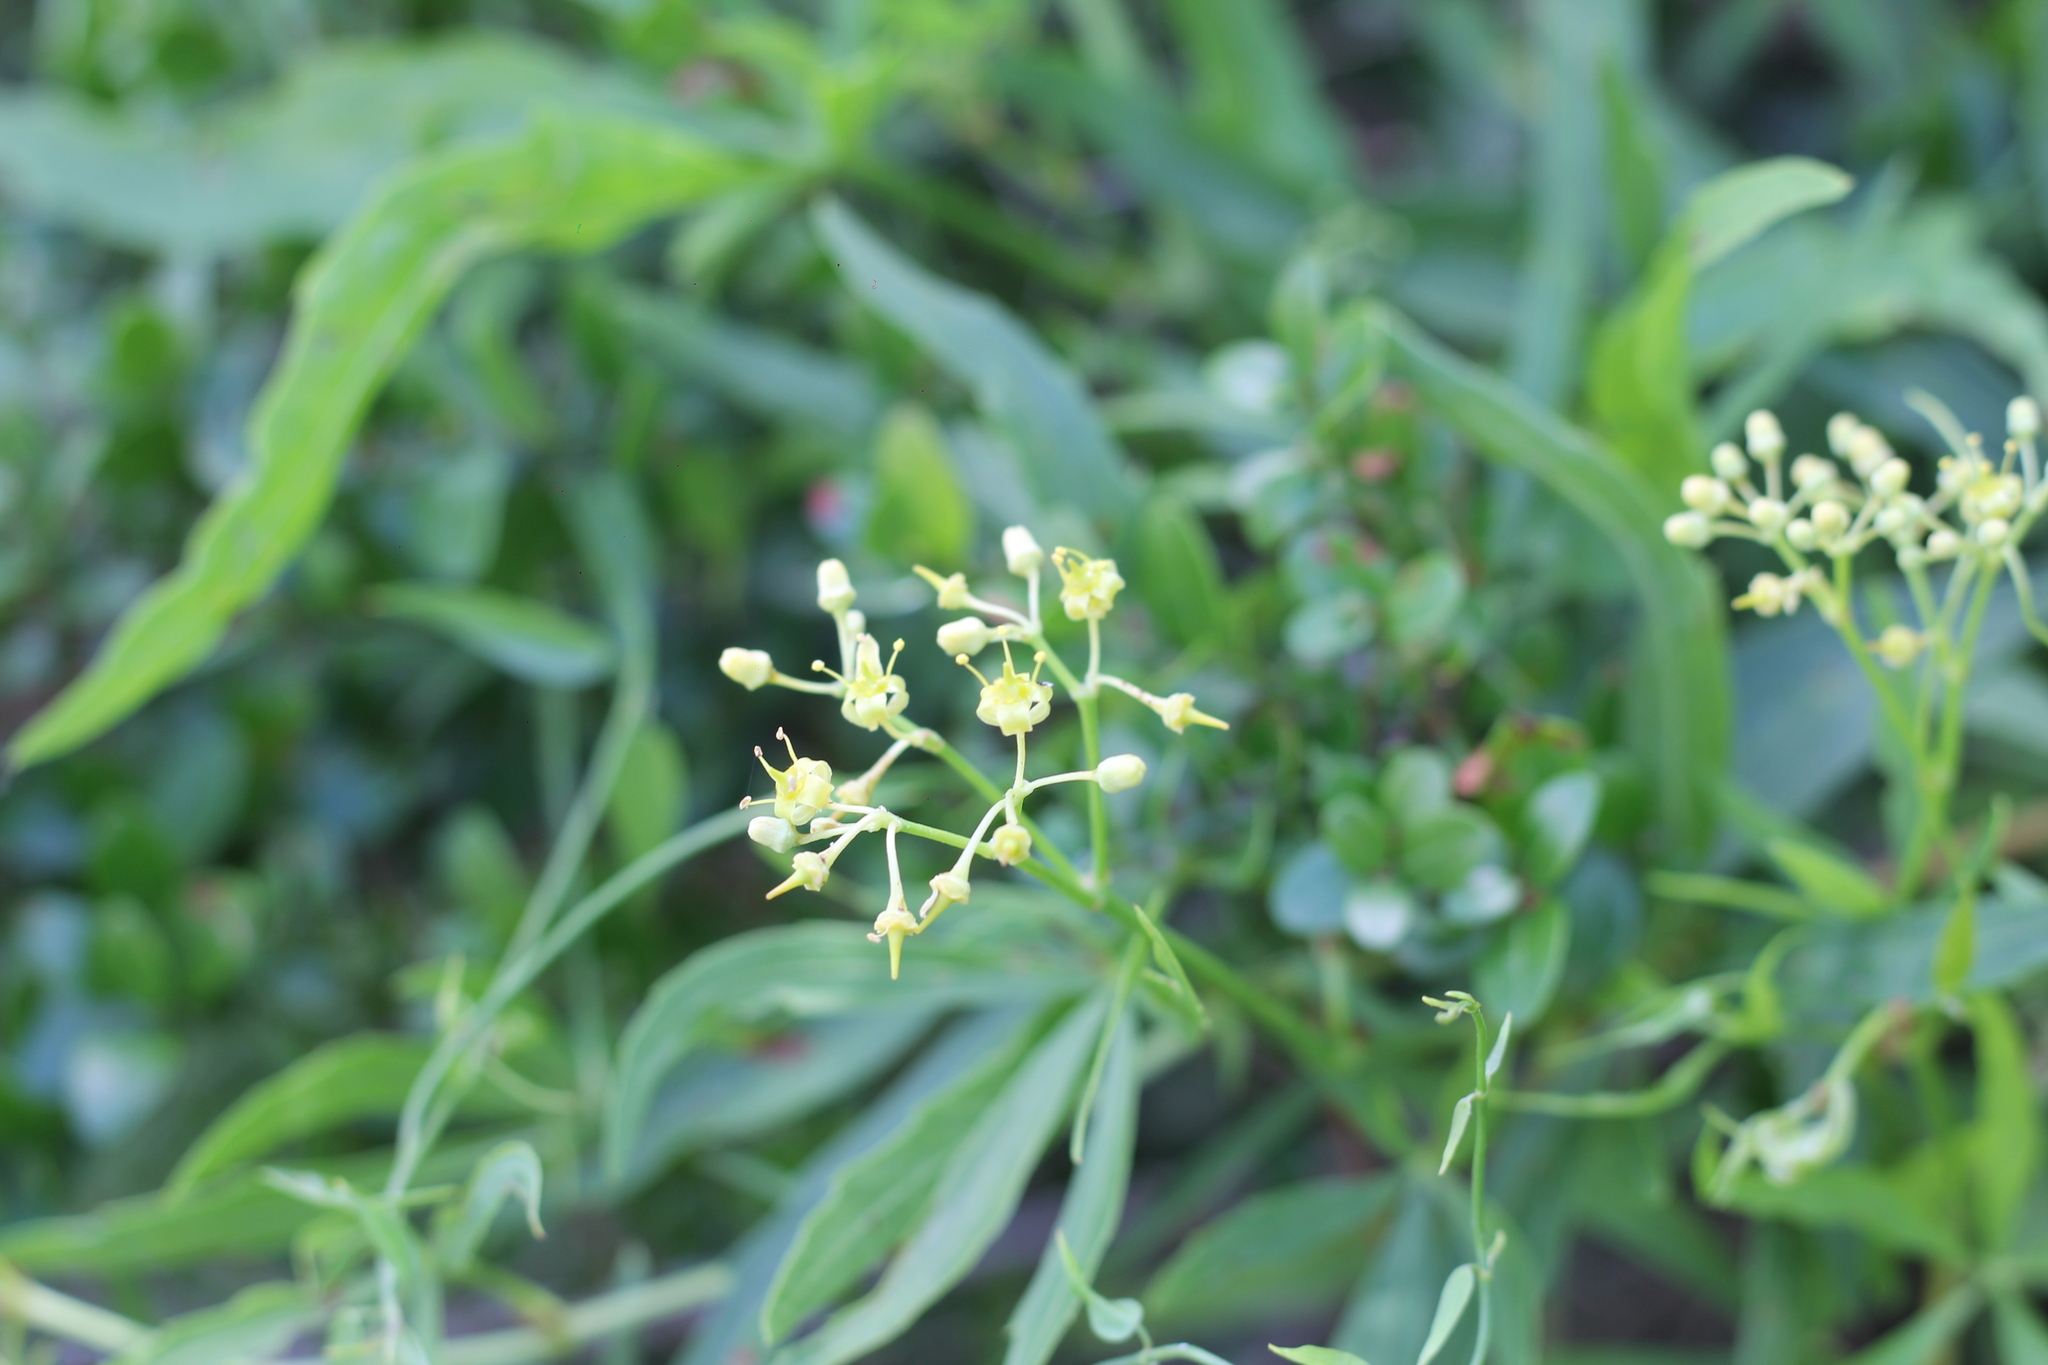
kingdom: Plantae
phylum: Tracheophyta
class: Magnoliopsida
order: Vitales
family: Vitaceae
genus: Cissus
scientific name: Cissus palmata
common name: Grape
